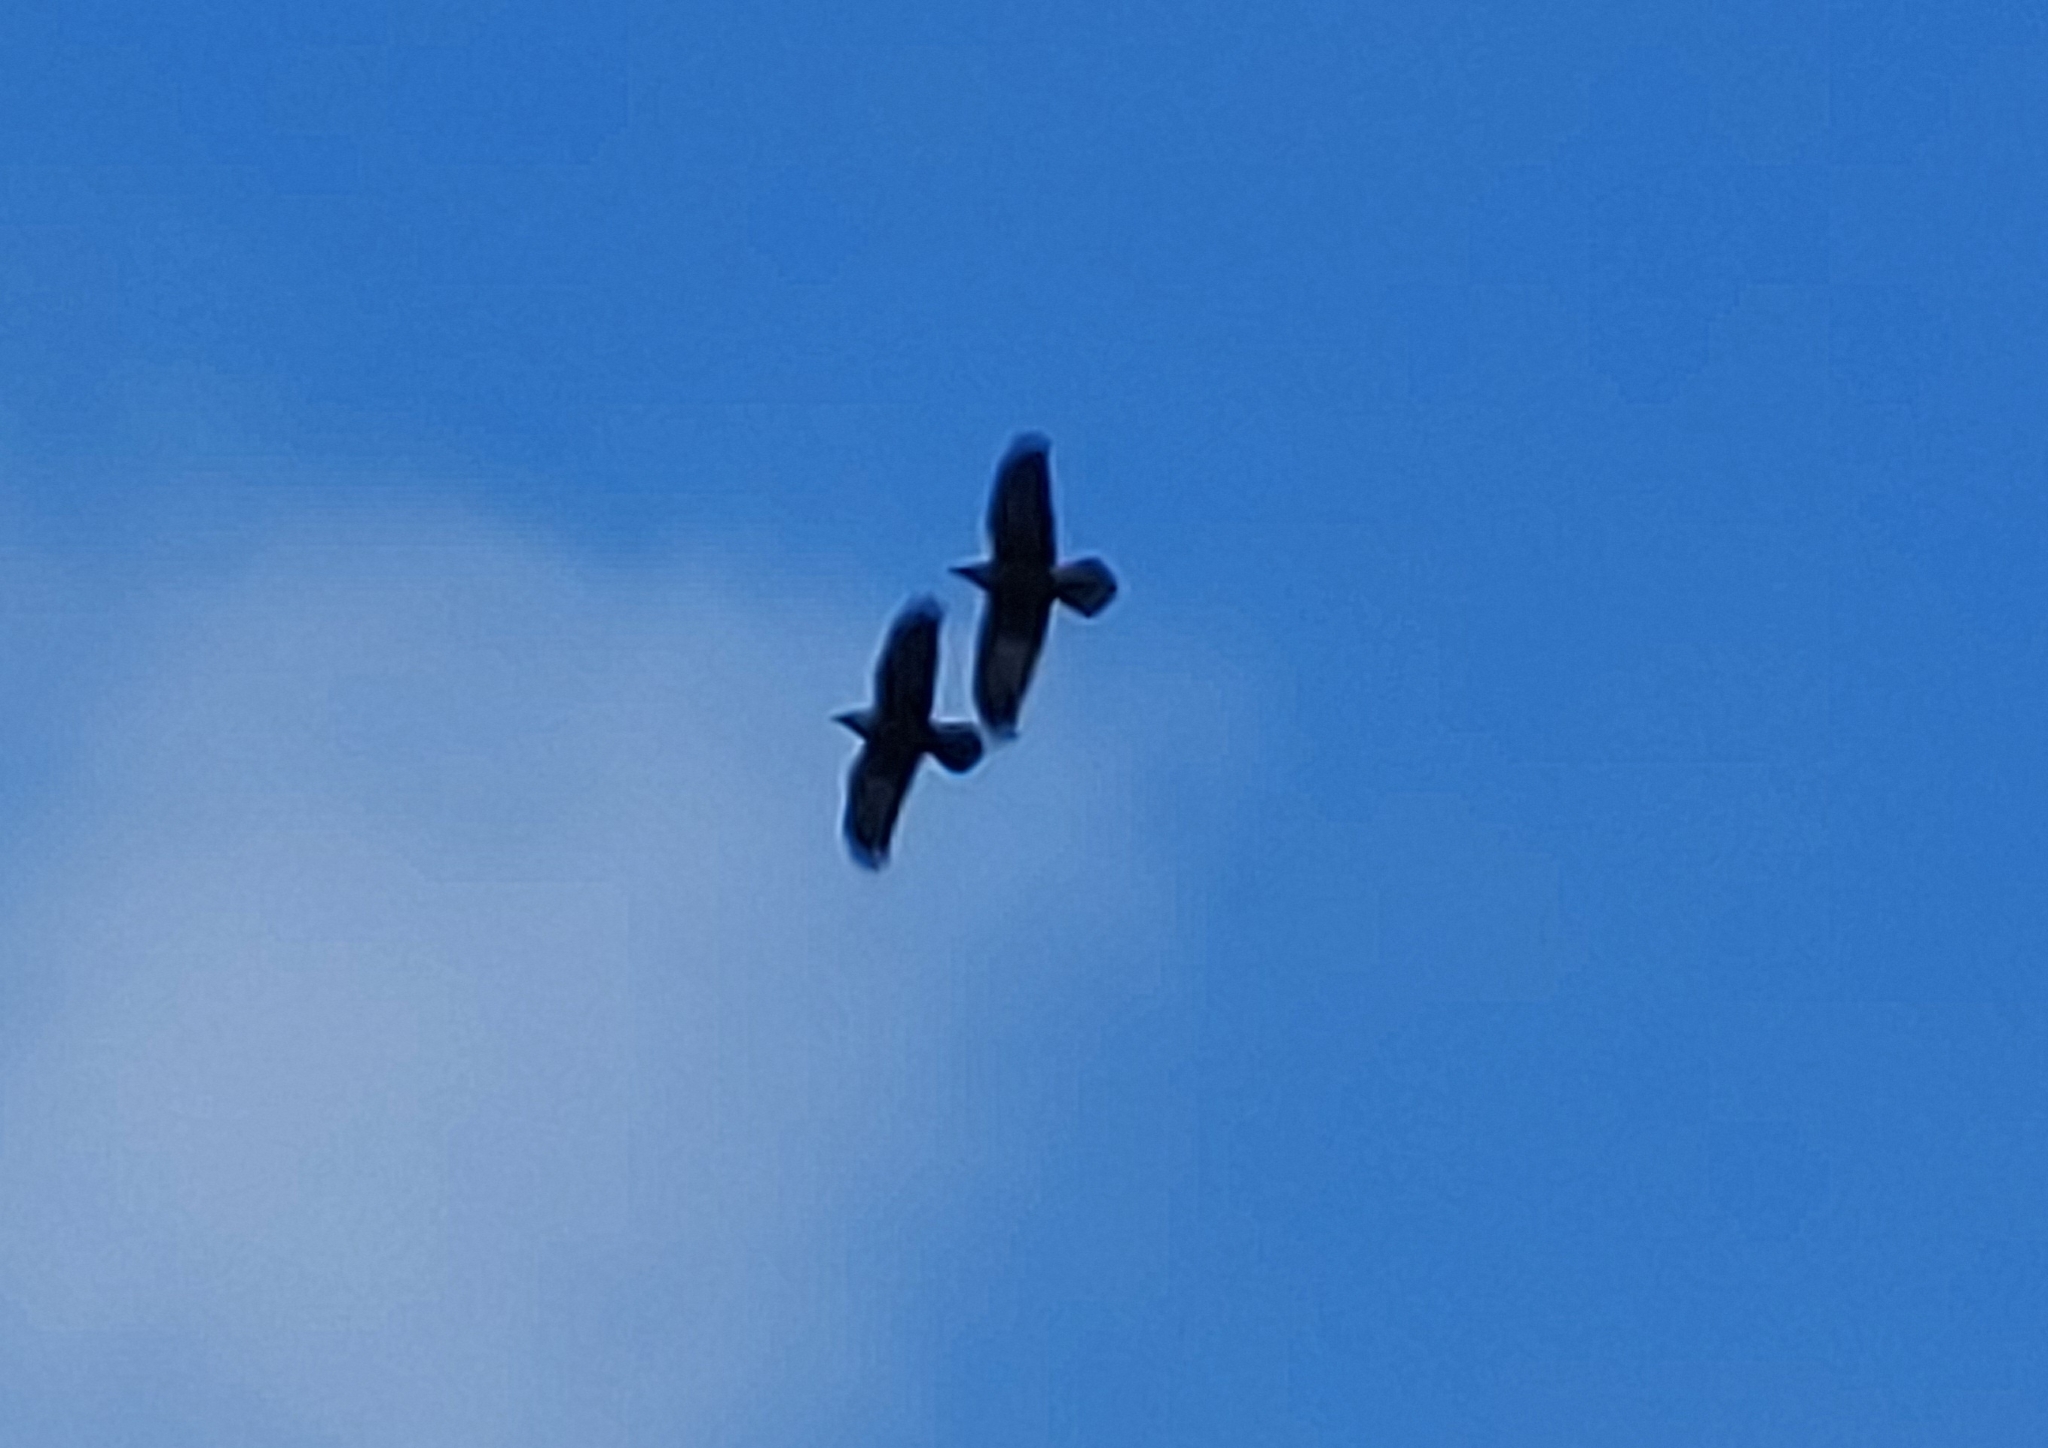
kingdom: Animalia
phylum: Chordata
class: Aves
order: Passeriformes
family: Corvidae
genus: Corvus
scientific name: Corvus corax
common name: Common raven
